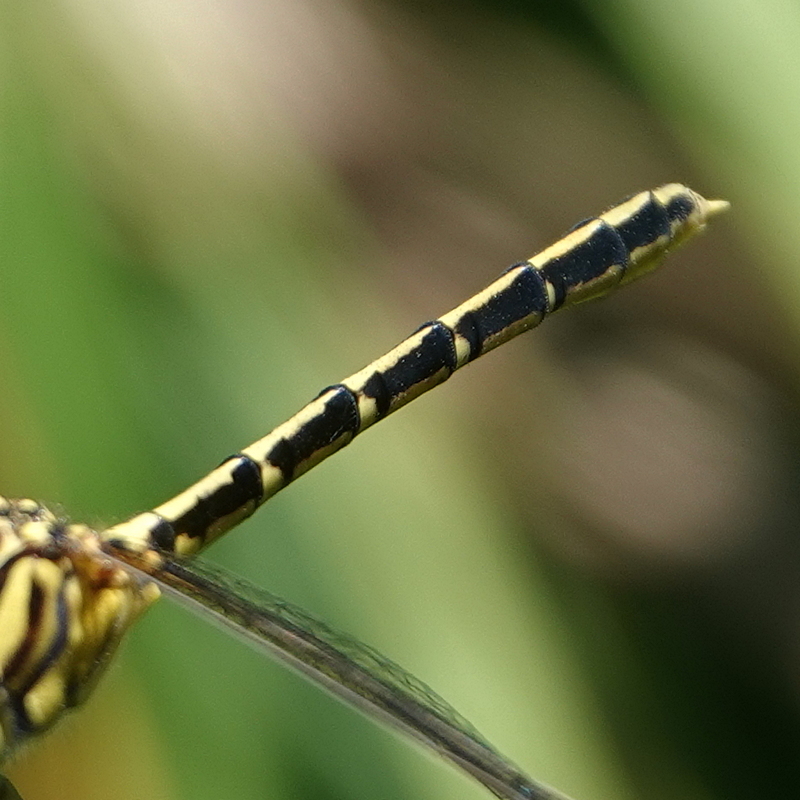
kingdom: Animalia
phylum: Arthropoda
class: Insecta
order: Odonata
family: Gomphidae
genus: Austrogomphus
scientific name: Austrogomphus guerini
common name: Yellow-striped hunter
